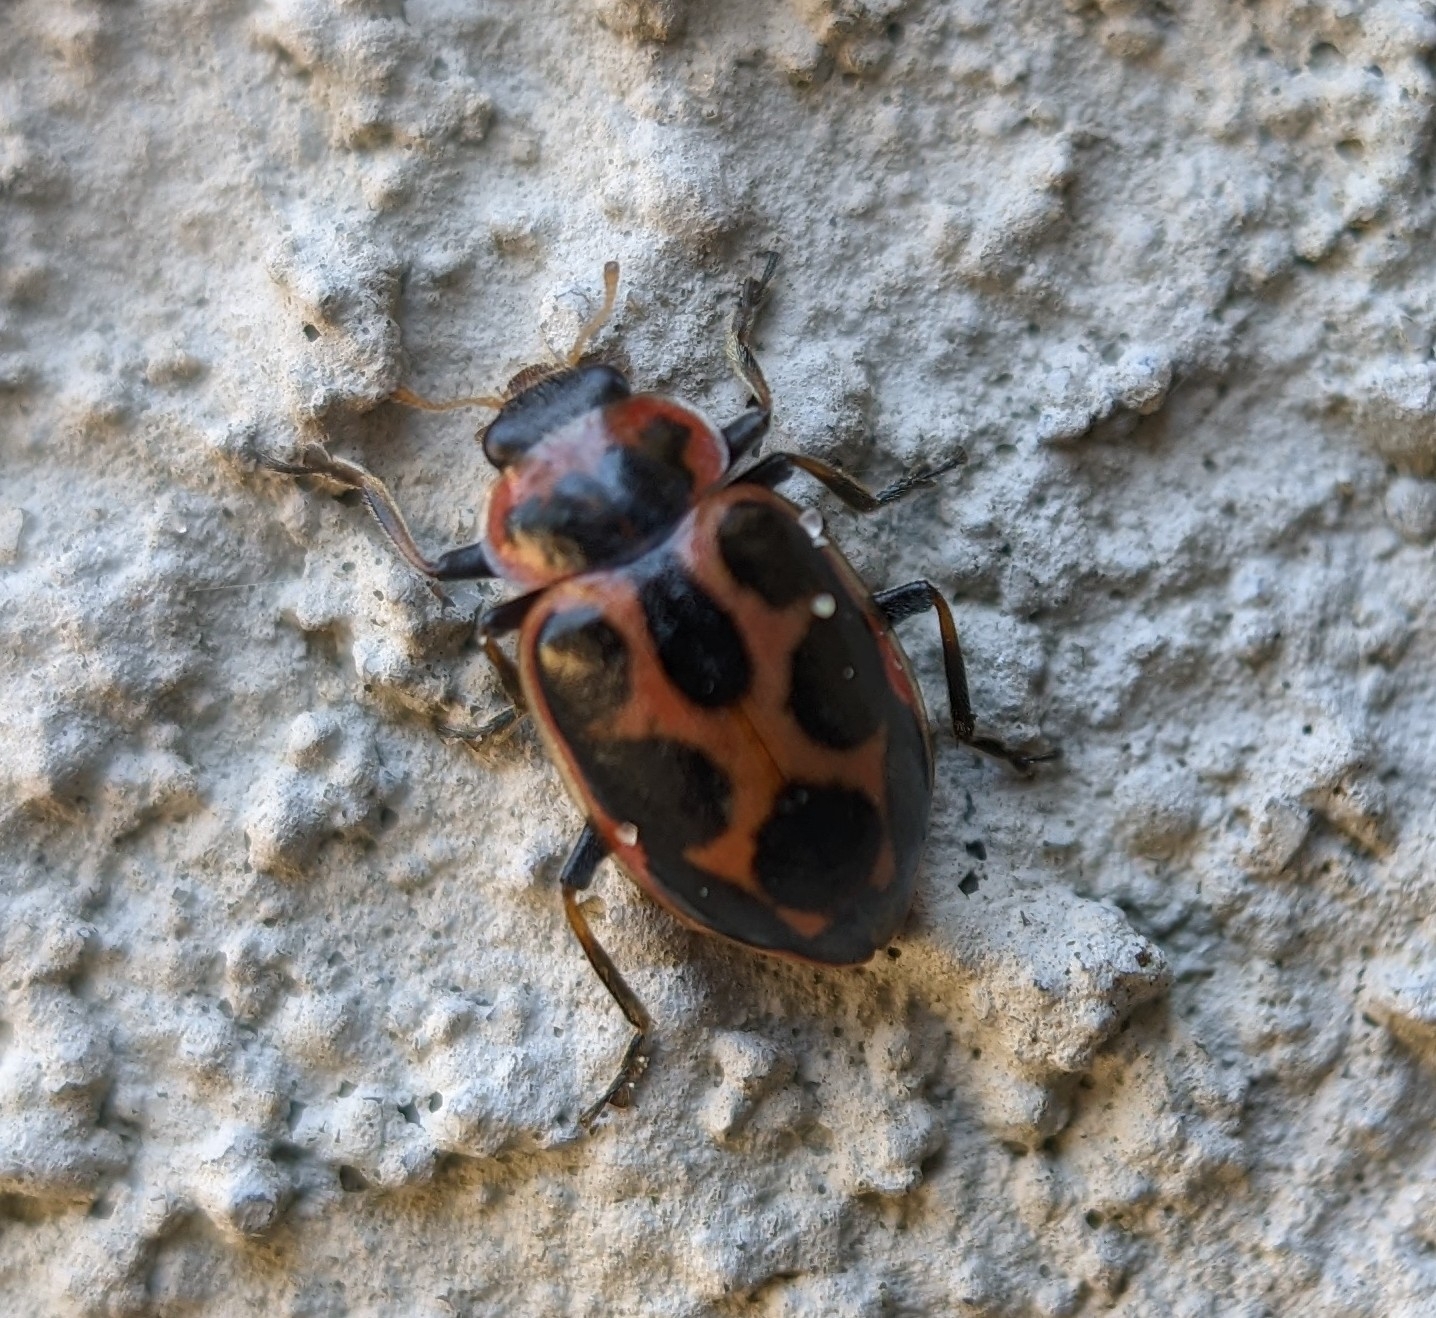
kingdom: Animalia
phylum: Arthropoda
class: Insecta
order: Coleoptera
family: Coccinellidae
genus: Naemia
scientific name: Naemia seriata
